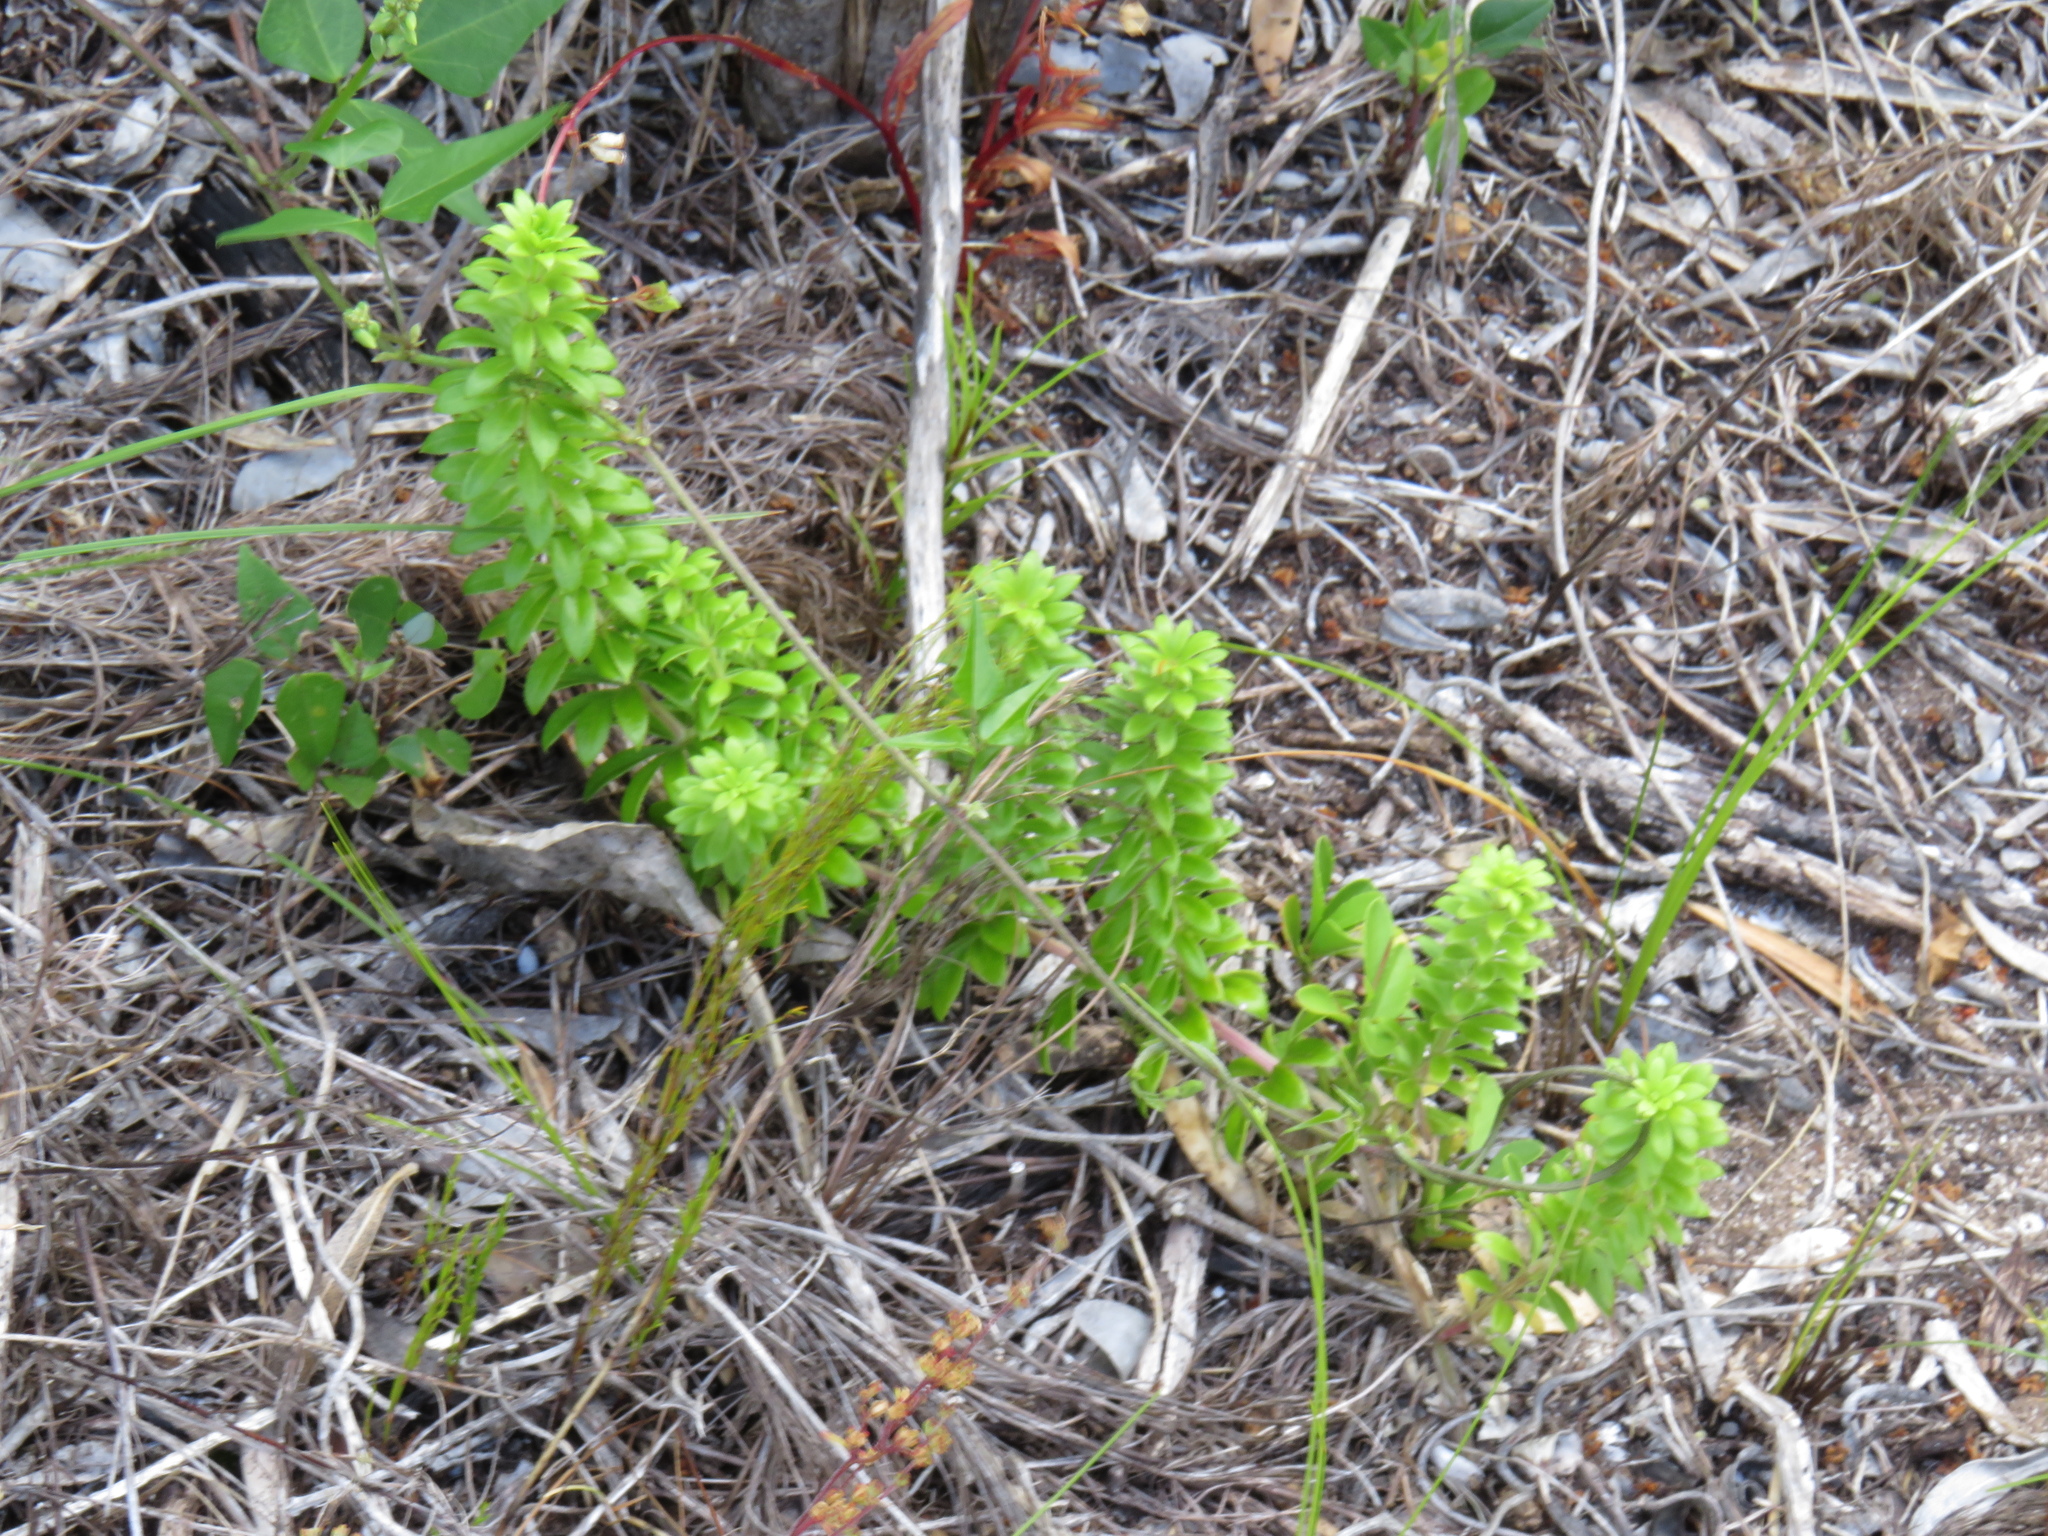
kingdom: Plantae
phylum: Tracheophyta
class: Magnoliopsida
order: Gentianales
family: Rubiaceae
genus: Galium
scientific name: Galium tomentosum
